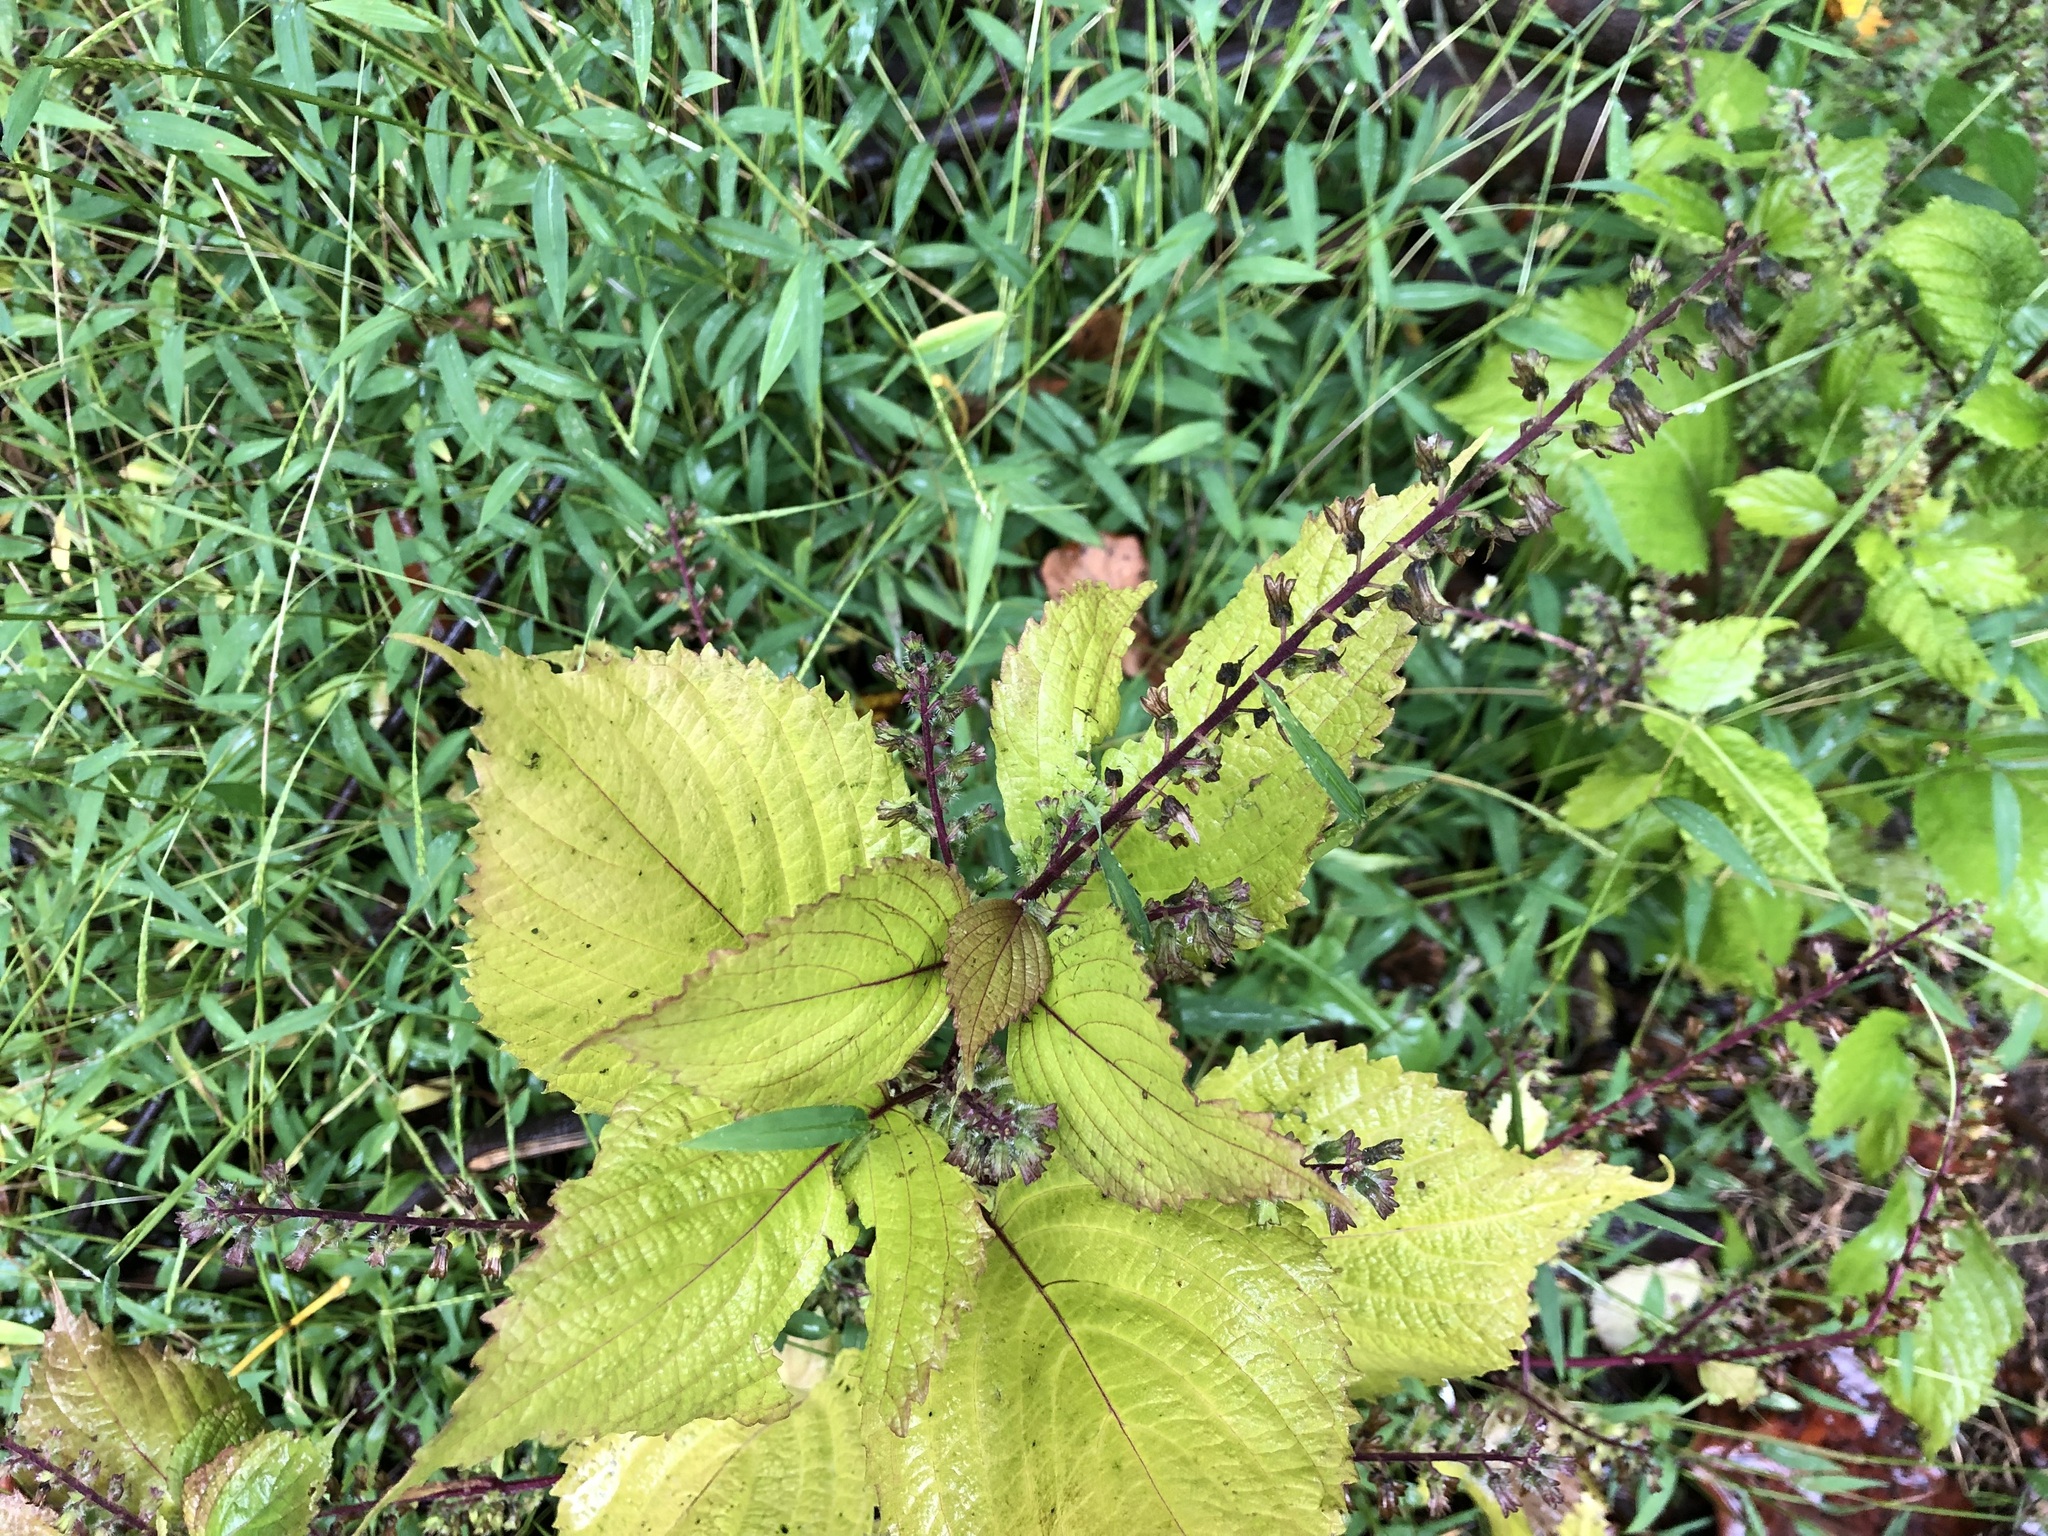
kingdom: Plantae
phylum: Tracheophyta
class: Magnoliopsida
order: Lamiales
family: Lamiaceae
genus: Perilla
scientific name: Perilla frutescens
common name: Perilla
